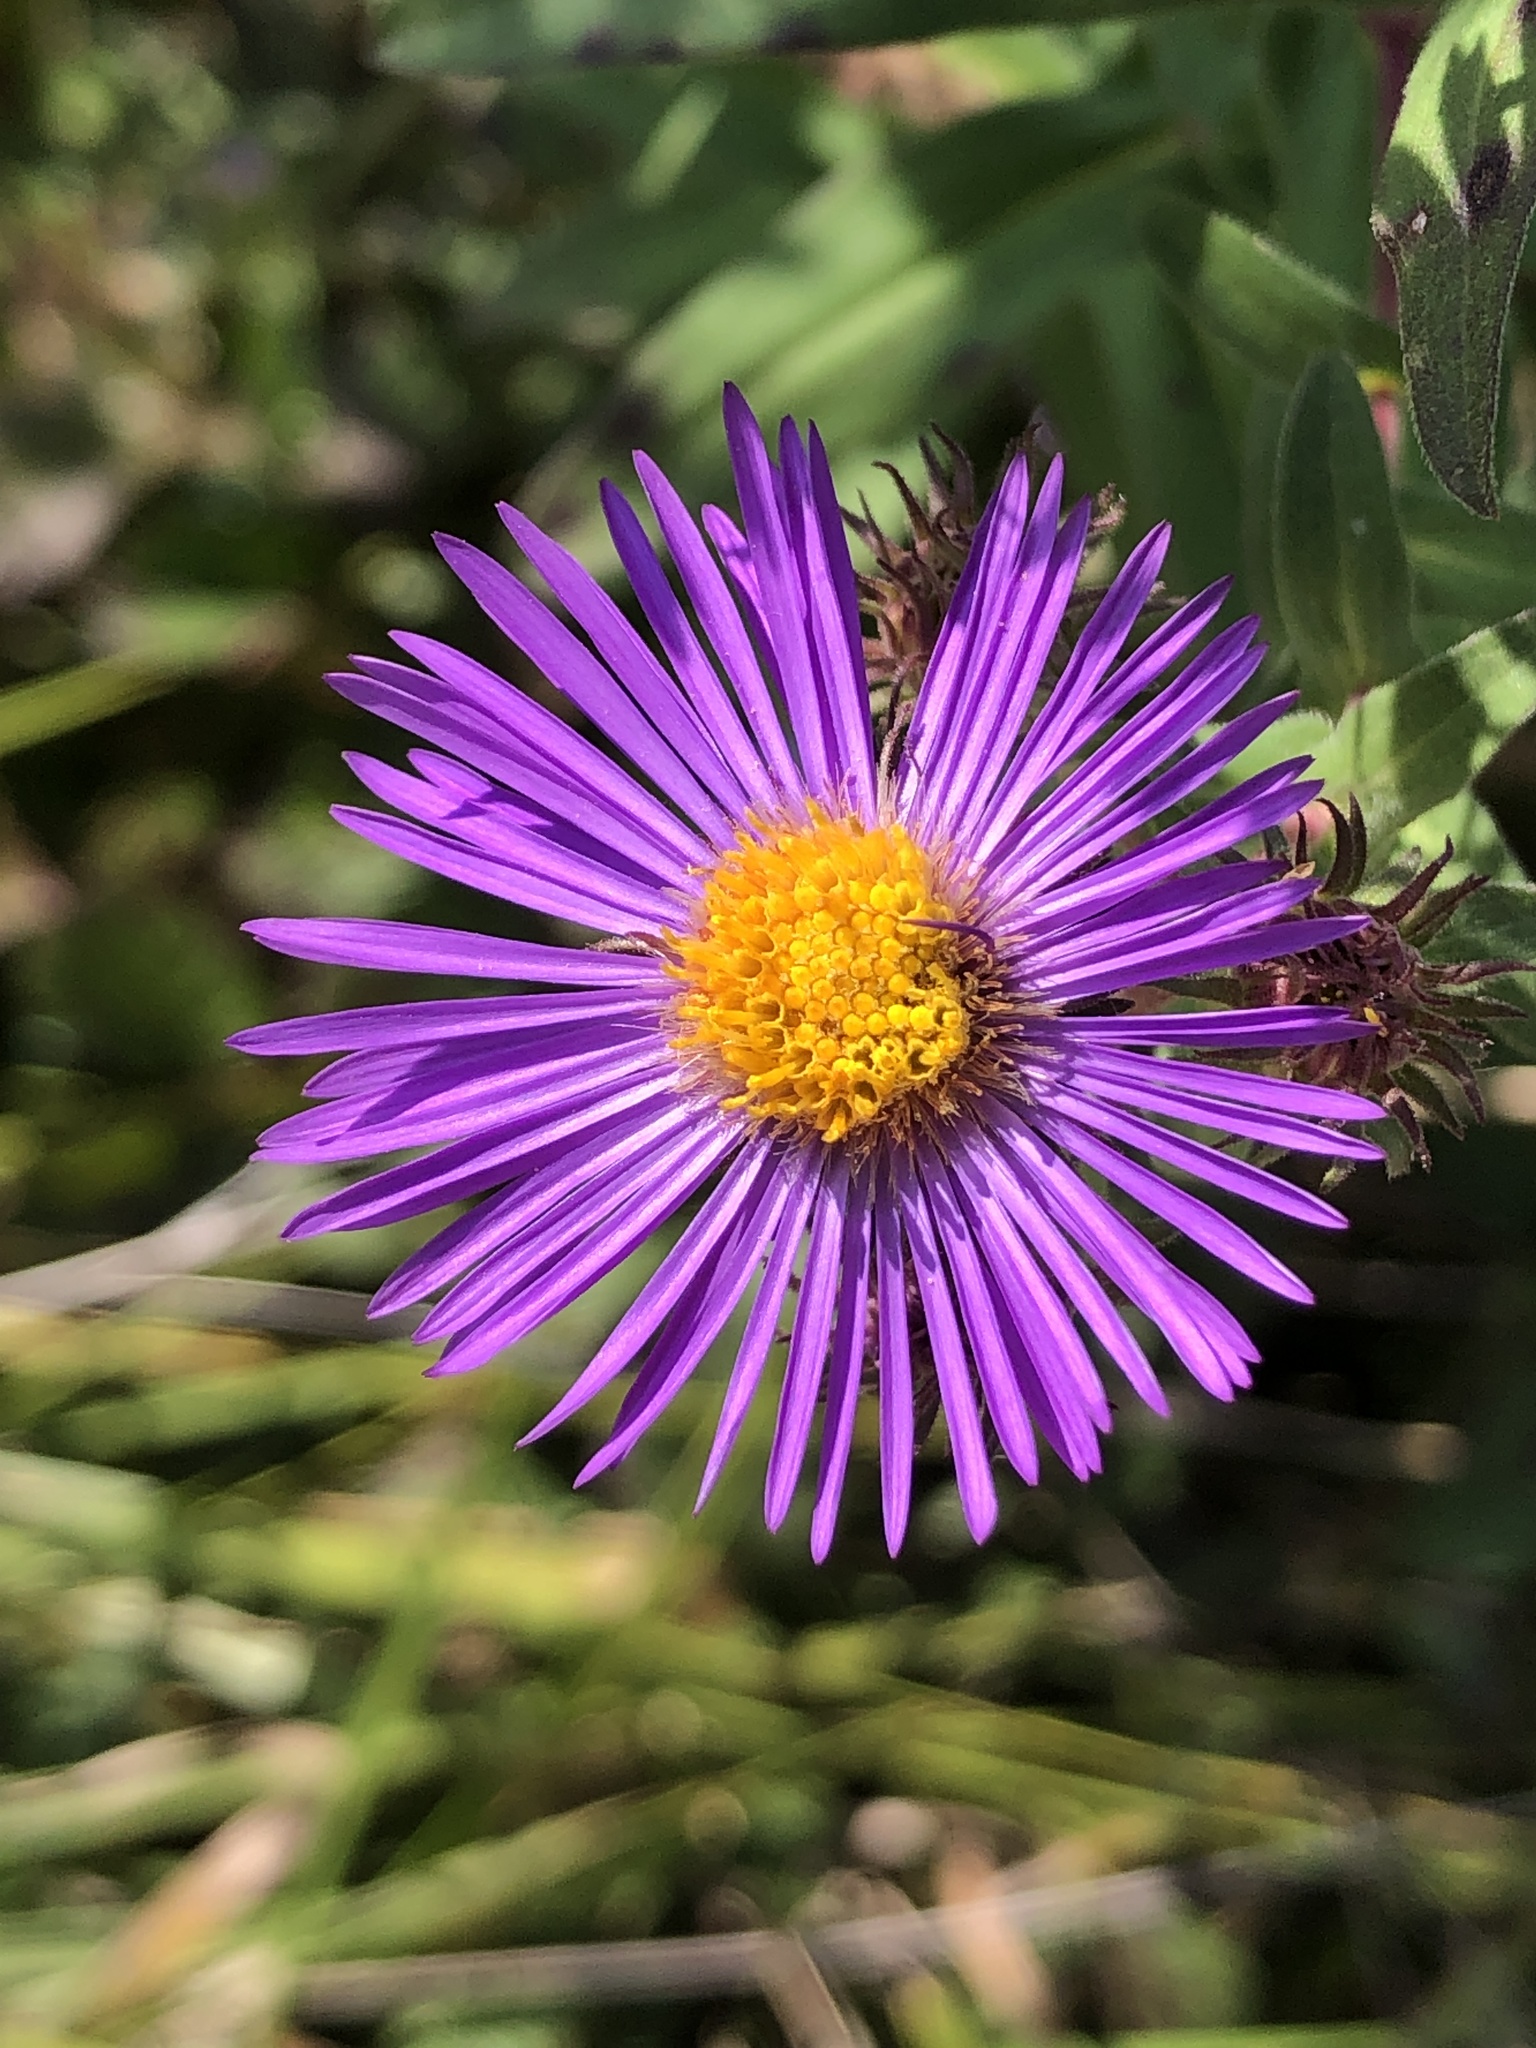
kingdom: Plantae
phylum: Tracheophyta
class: Magnoliopsida
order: Asterales
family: Asteraceae
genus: Symphyotrichum
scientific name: Symphyotrichum novae-angliae
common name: Michaelmas daisy
